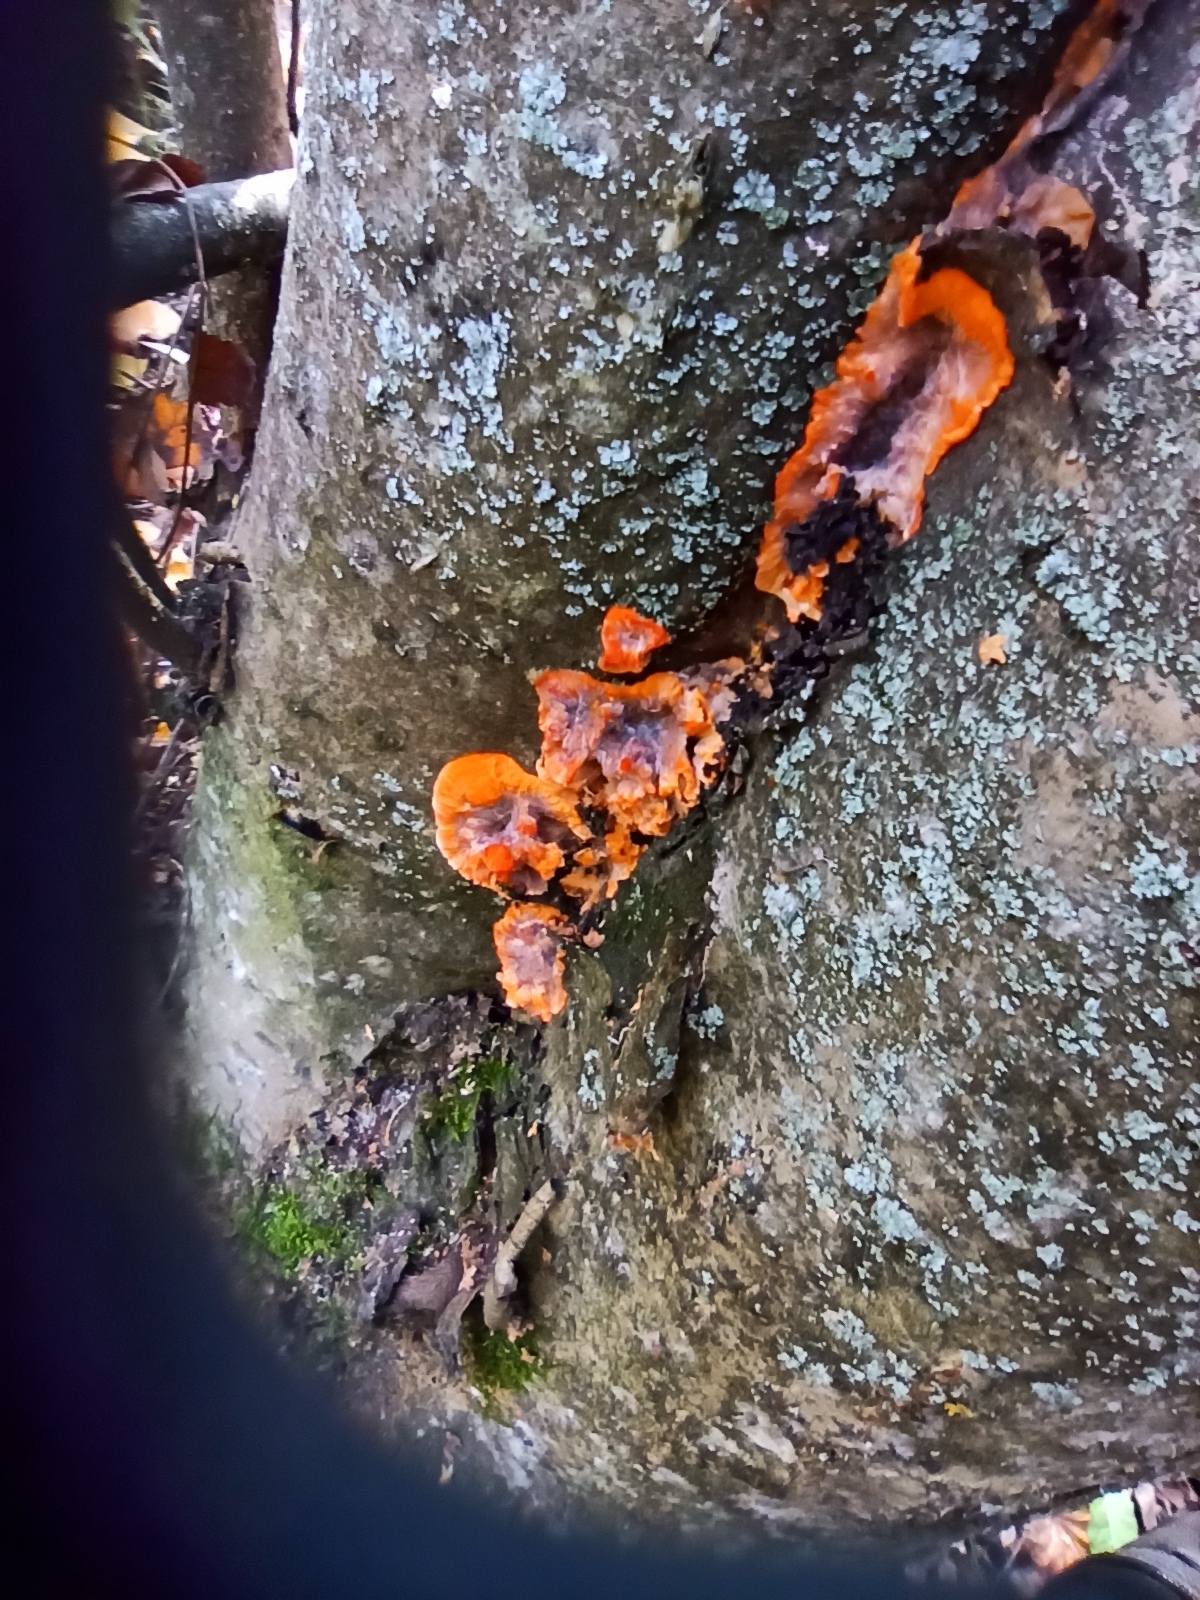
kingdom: Fungi
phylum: Basidiomycota
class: Agaricomycetes
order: Polyporales
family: Meruliaceae
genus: Phlebia
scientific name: Phlebia radiata
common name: Wrinkled crust
